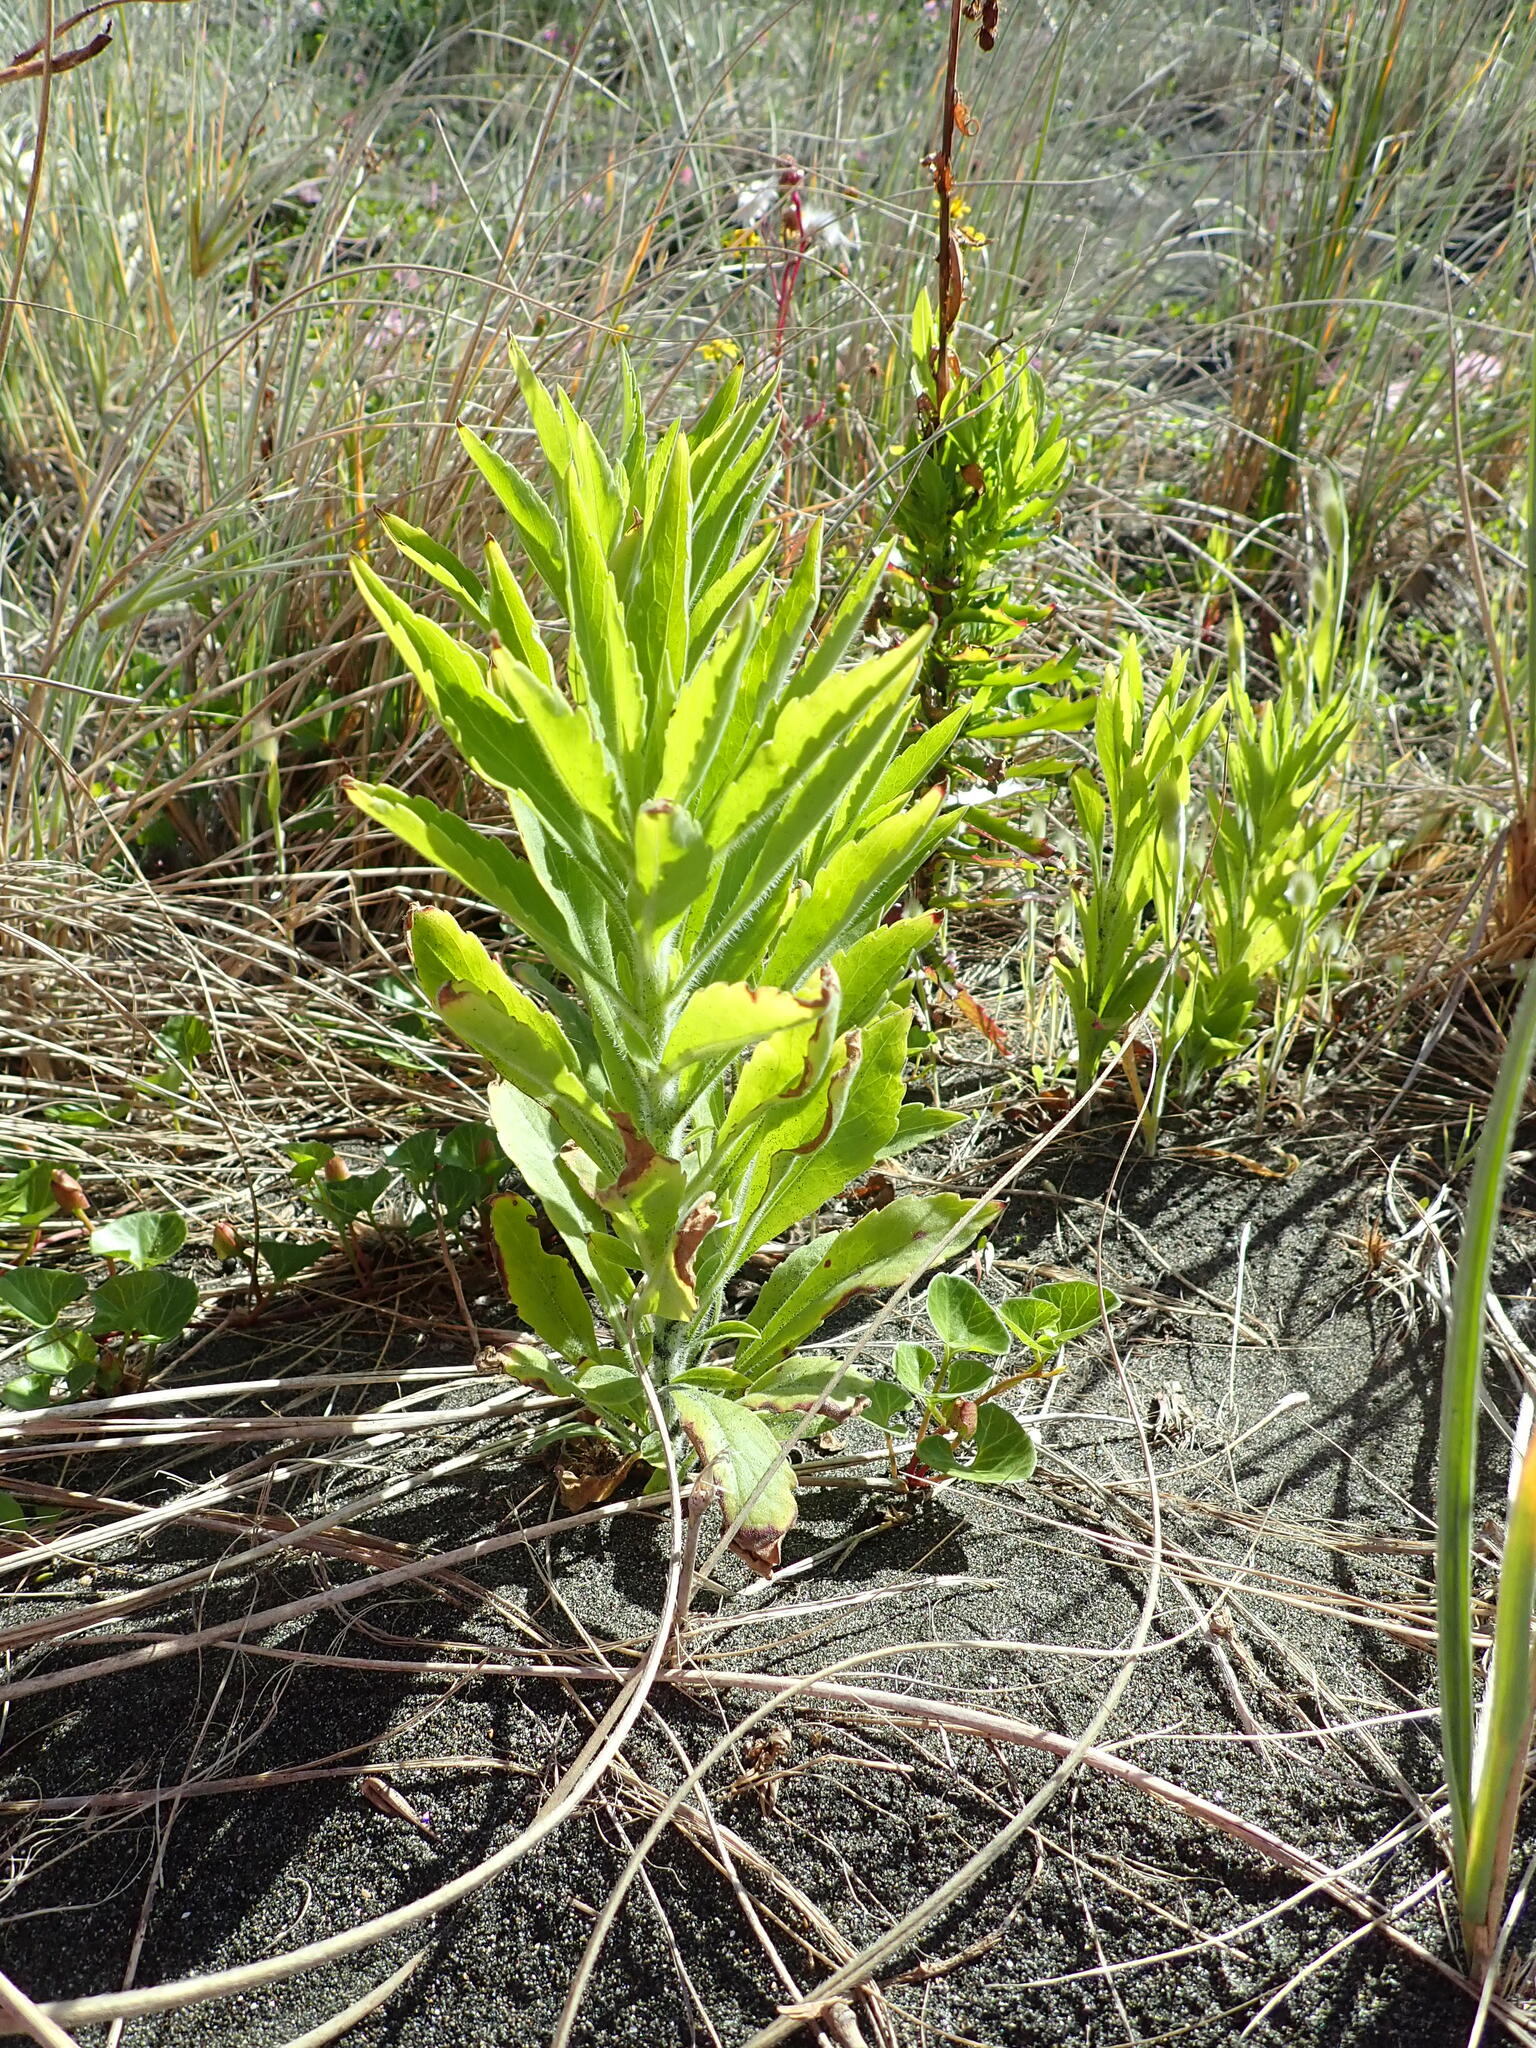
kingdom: Plantae
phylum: Tracheophyta
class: Magnoliopsida
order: Asterales
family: Asteraceae
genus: Erigeron
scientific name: Erigeron sumatrensis
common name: Daisy
